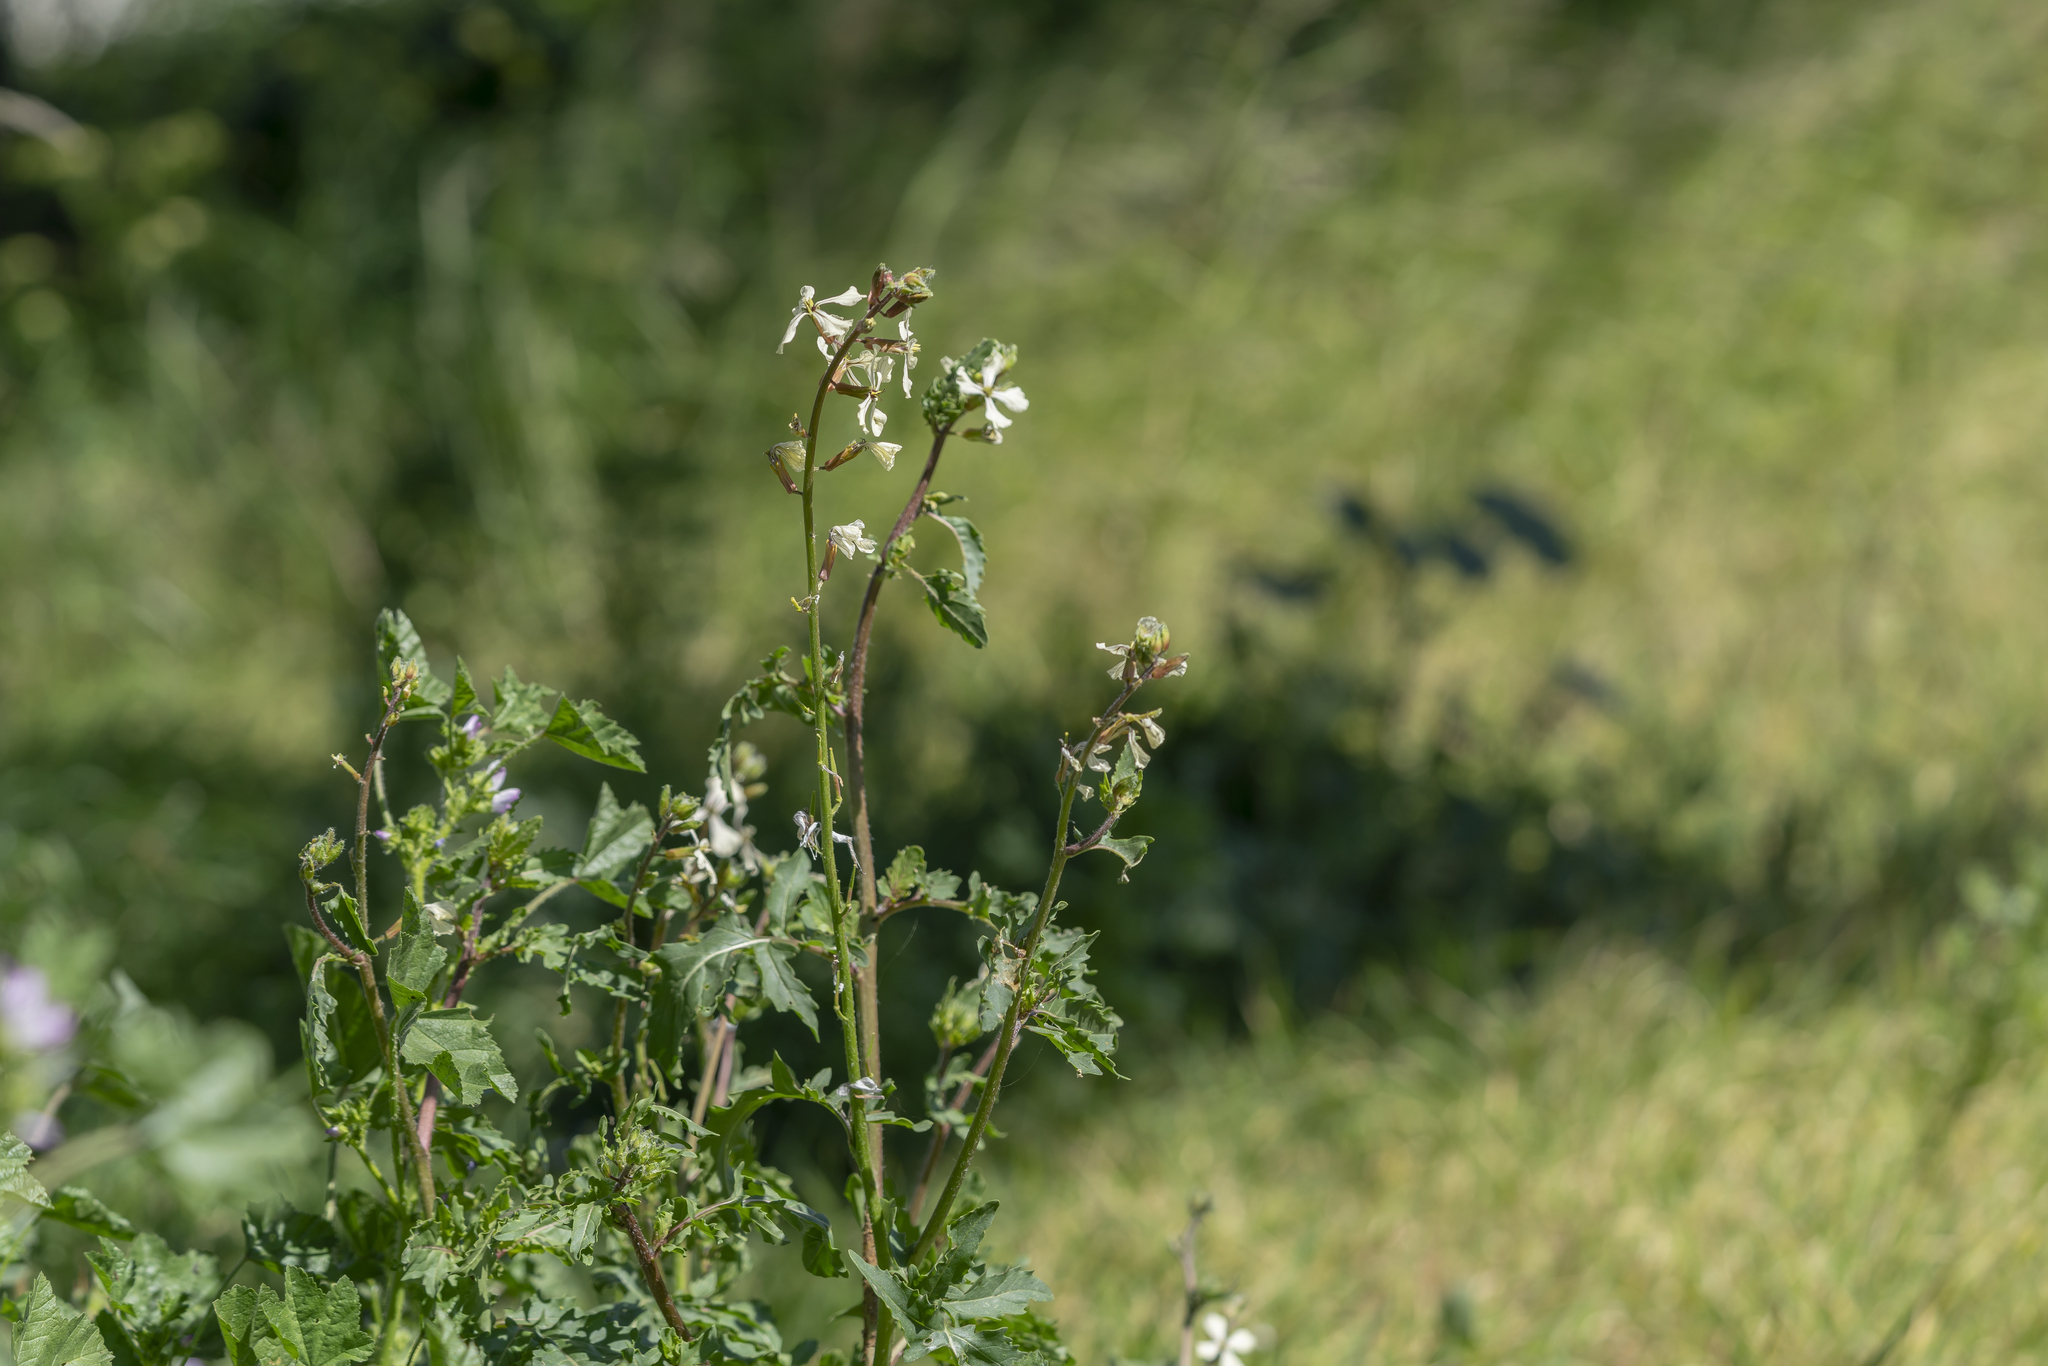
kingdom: Plantae
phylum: Tracheophyta
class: Magnoliopsida
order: Brassicales
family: Brassicaceae
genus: Eruca
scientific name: Eruca vesicaria
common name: Garden rocket
